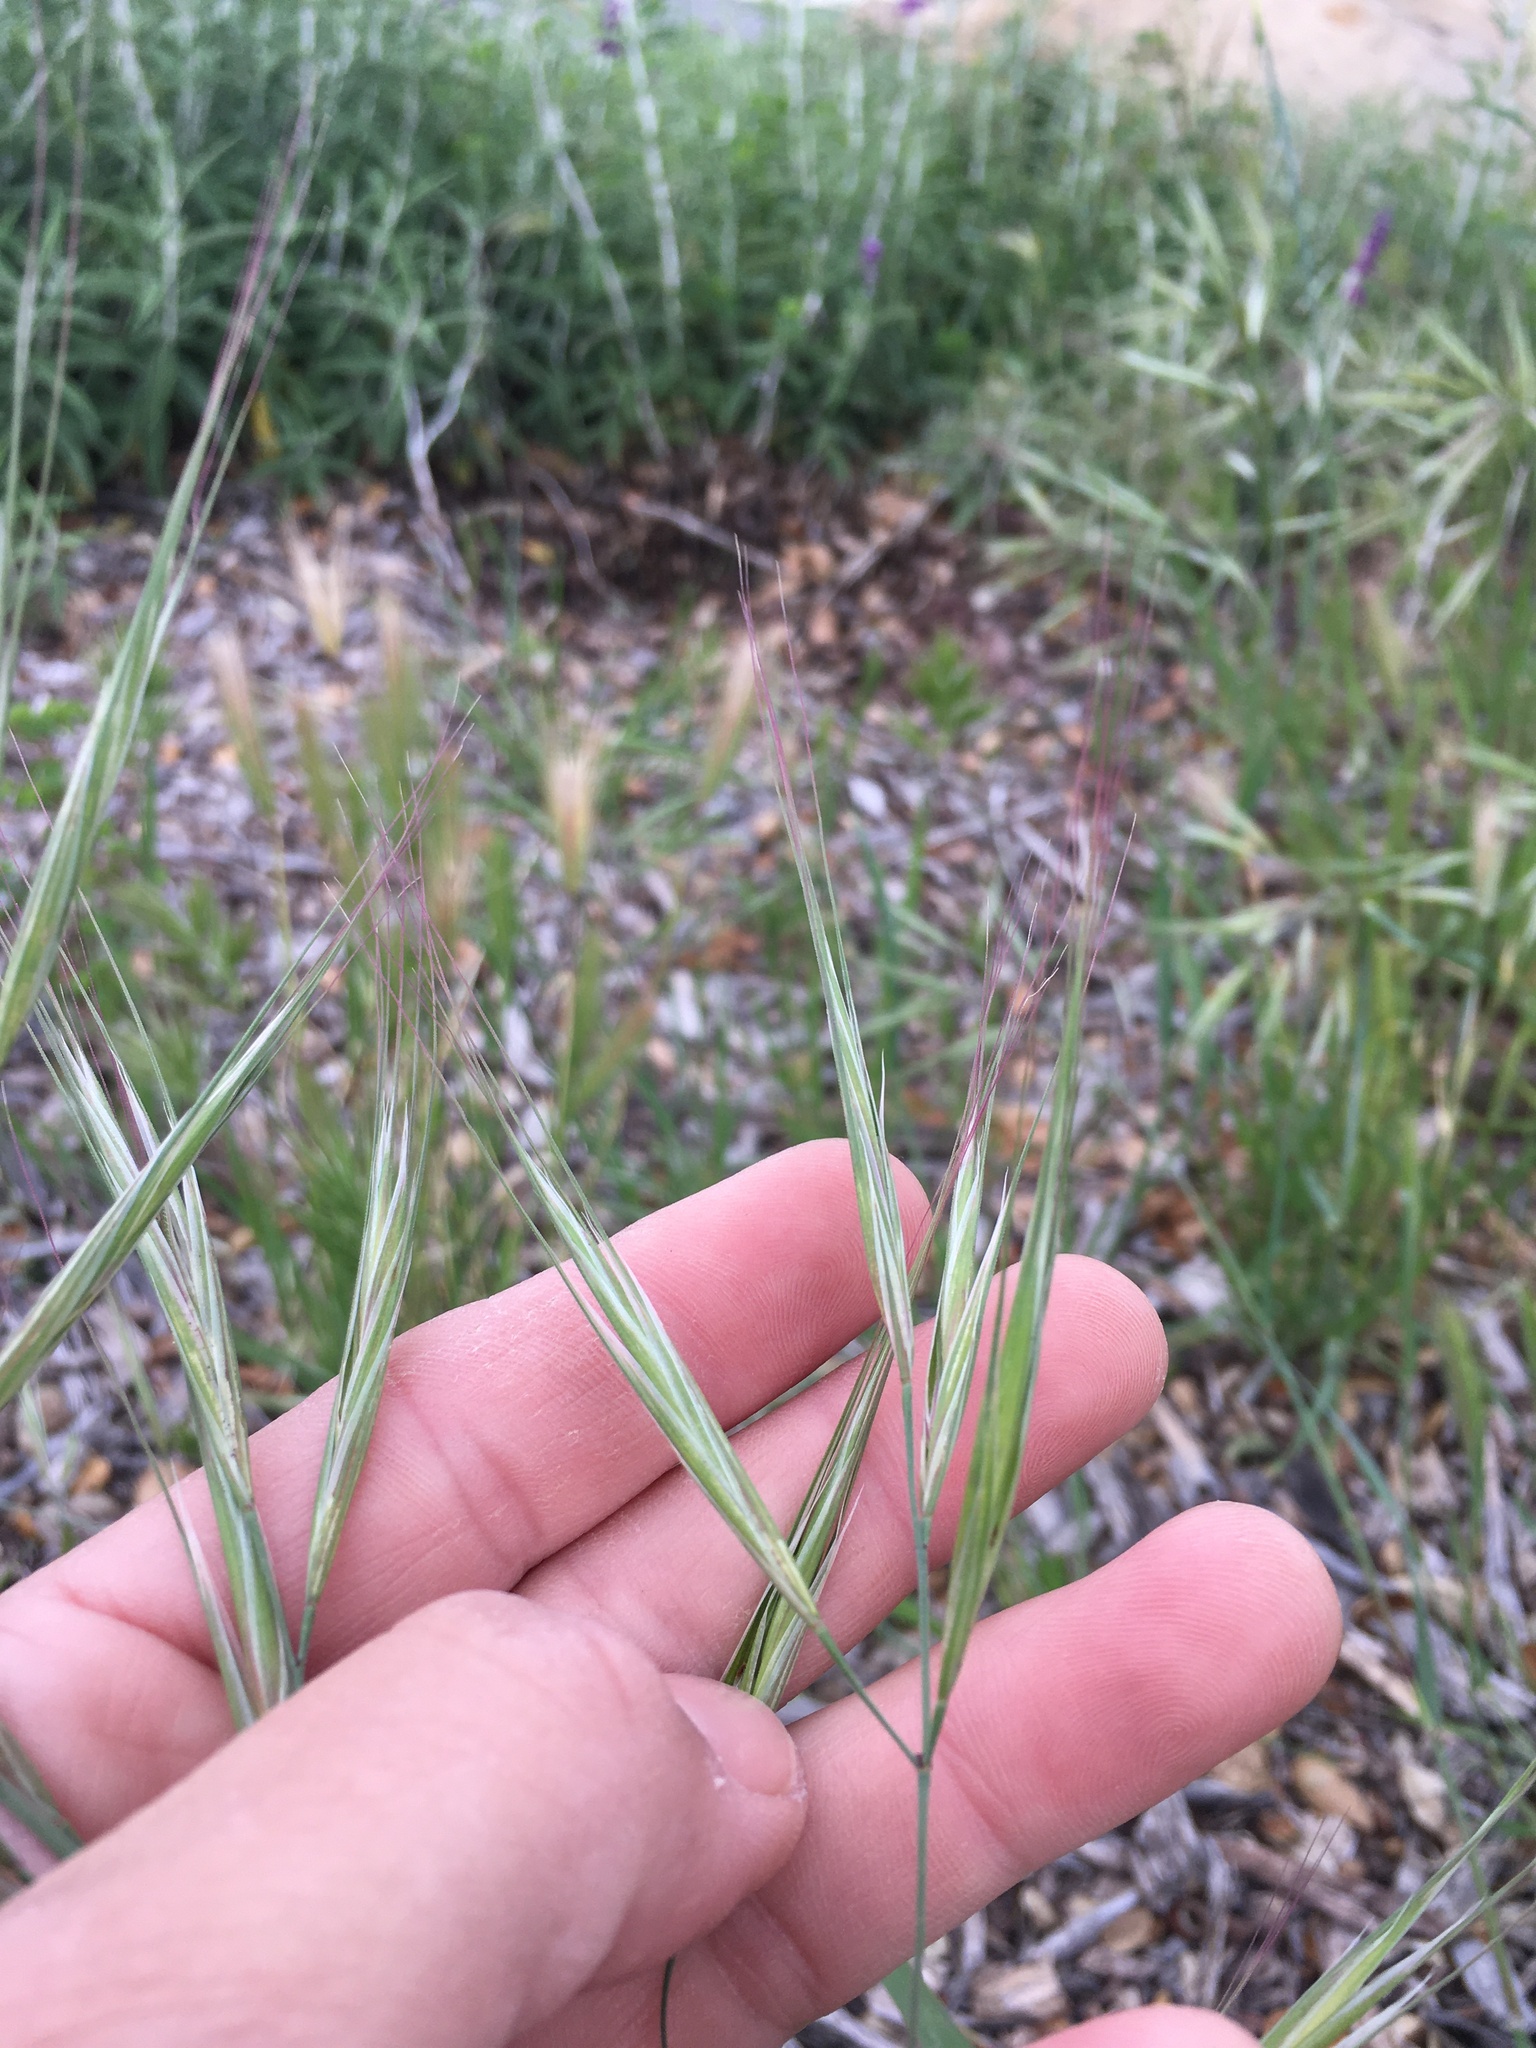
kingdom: Plantae
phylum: Tracheophyta
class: Liliopsida
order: Poales
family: Poaceae
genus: Bromus
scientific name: Bromus diandrus
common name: Ripgut brome
